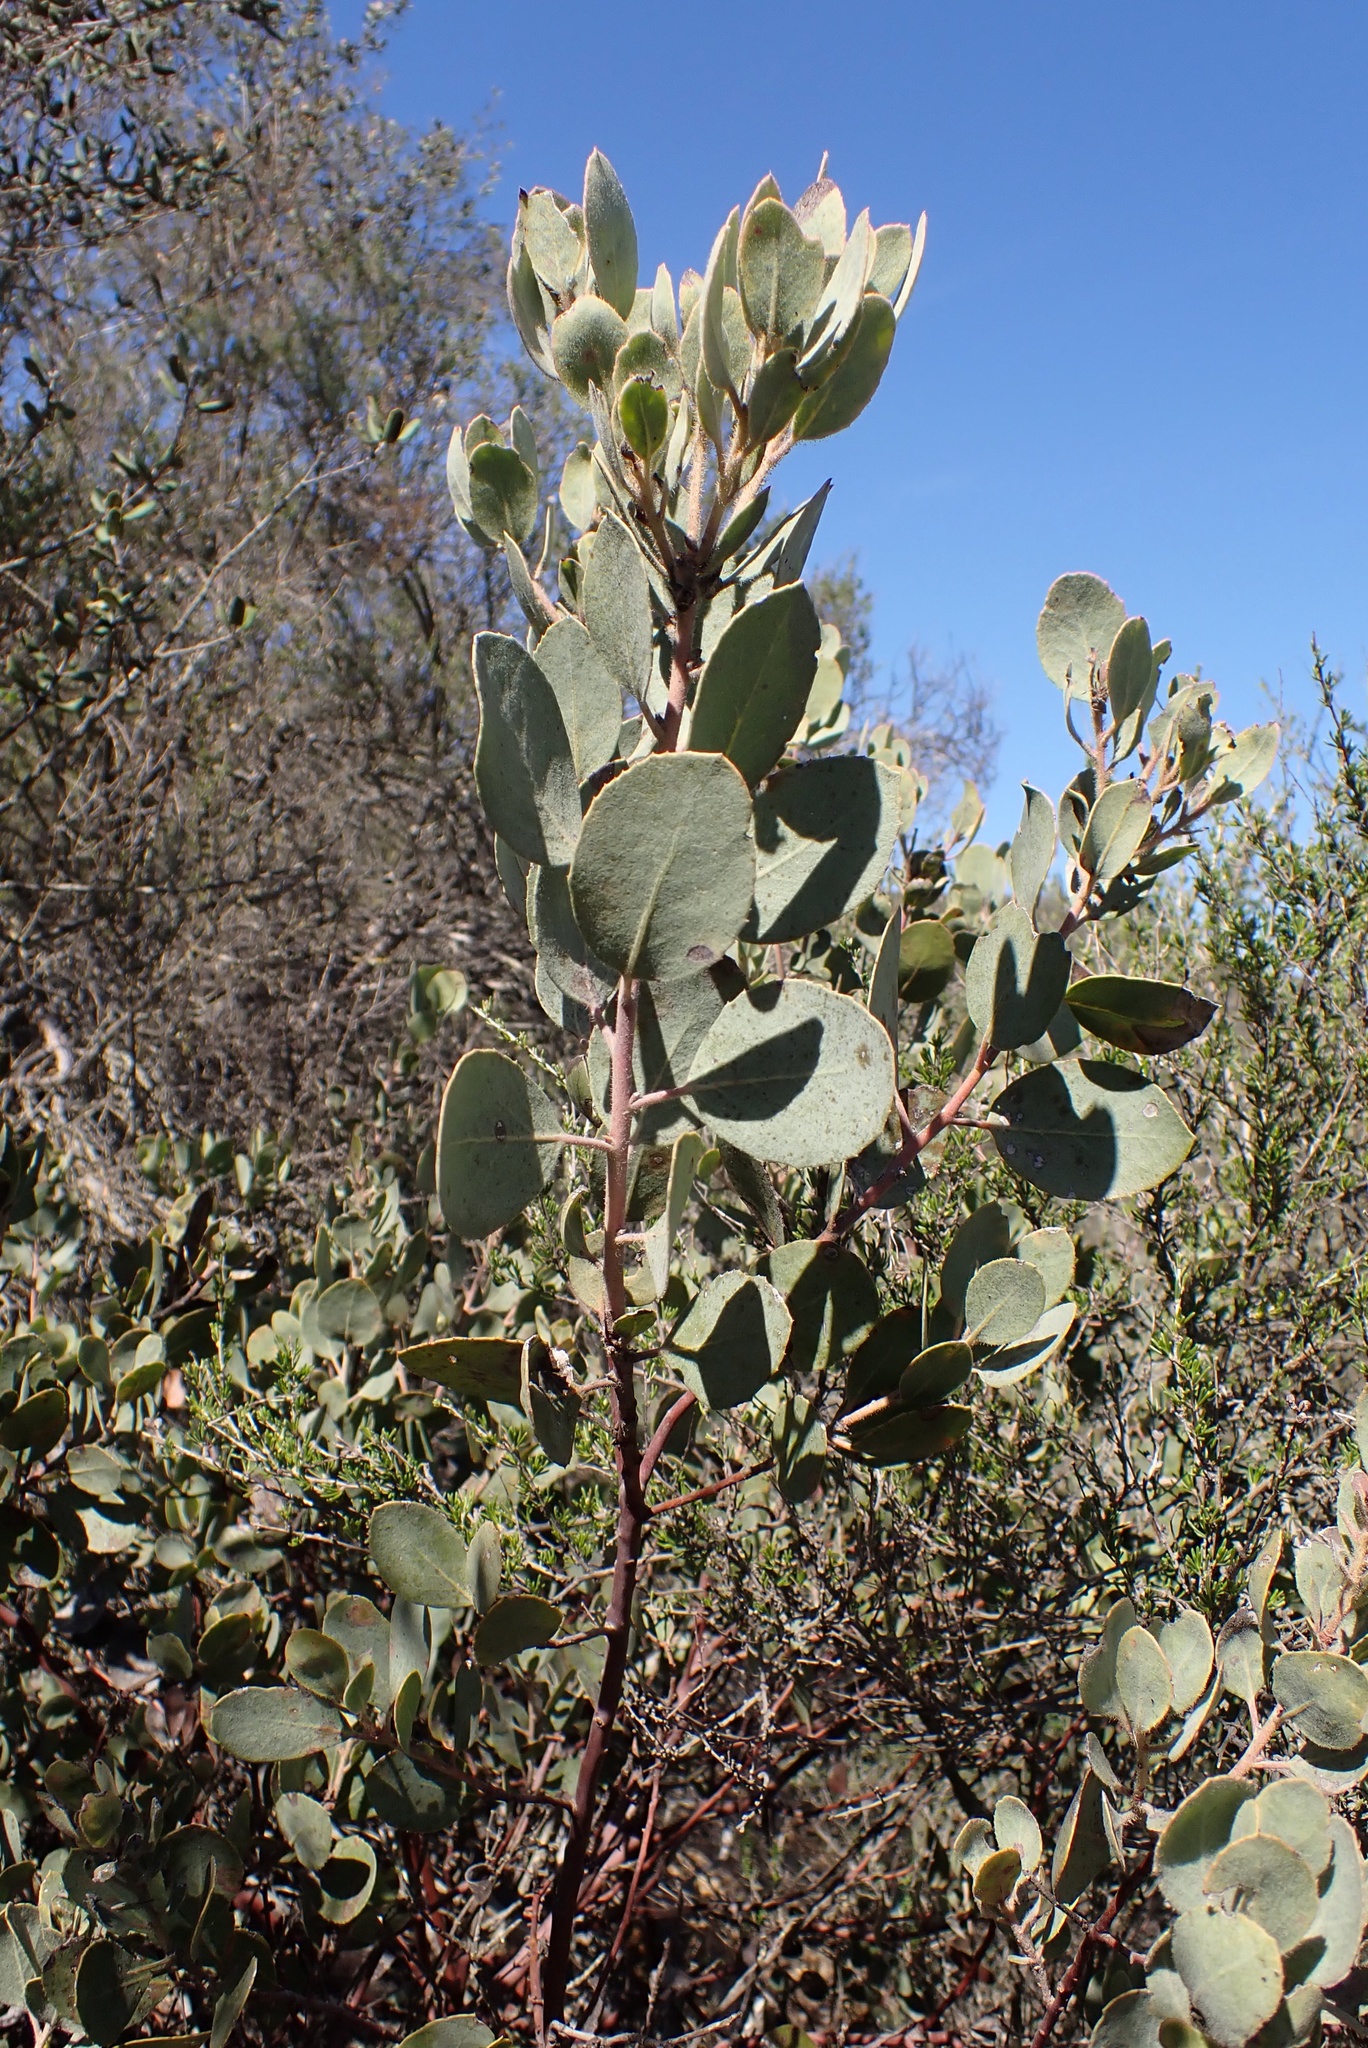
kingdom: Plantae
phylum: Tracheophyta
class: Magnoliopsida
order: Ericales
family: Ericaceae
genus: Arctostaphylos
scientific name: Arctostaphylos rainbowensis
